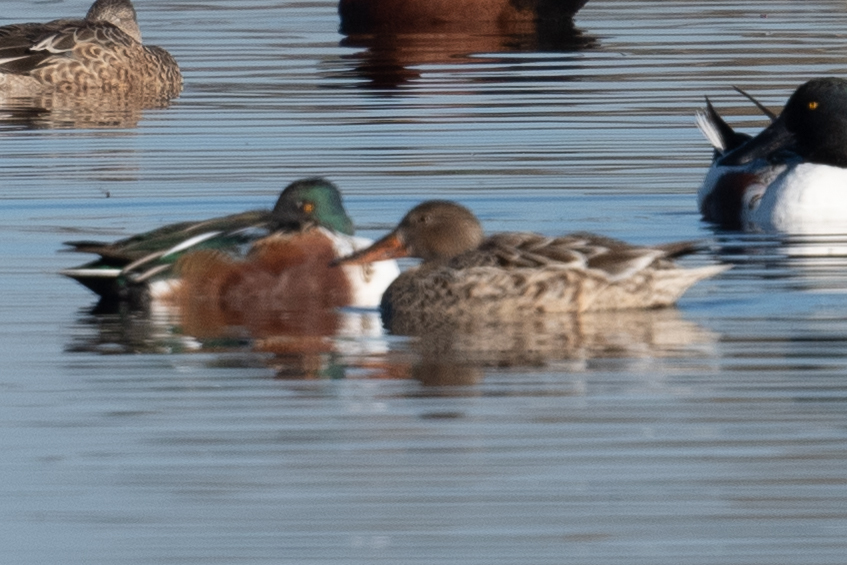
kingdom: Animalia
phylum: Chordata
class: Aves
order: Anseriformes
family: Anatidae
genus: Spatula
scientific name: Spatula clypeata
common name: Northern shoveler
